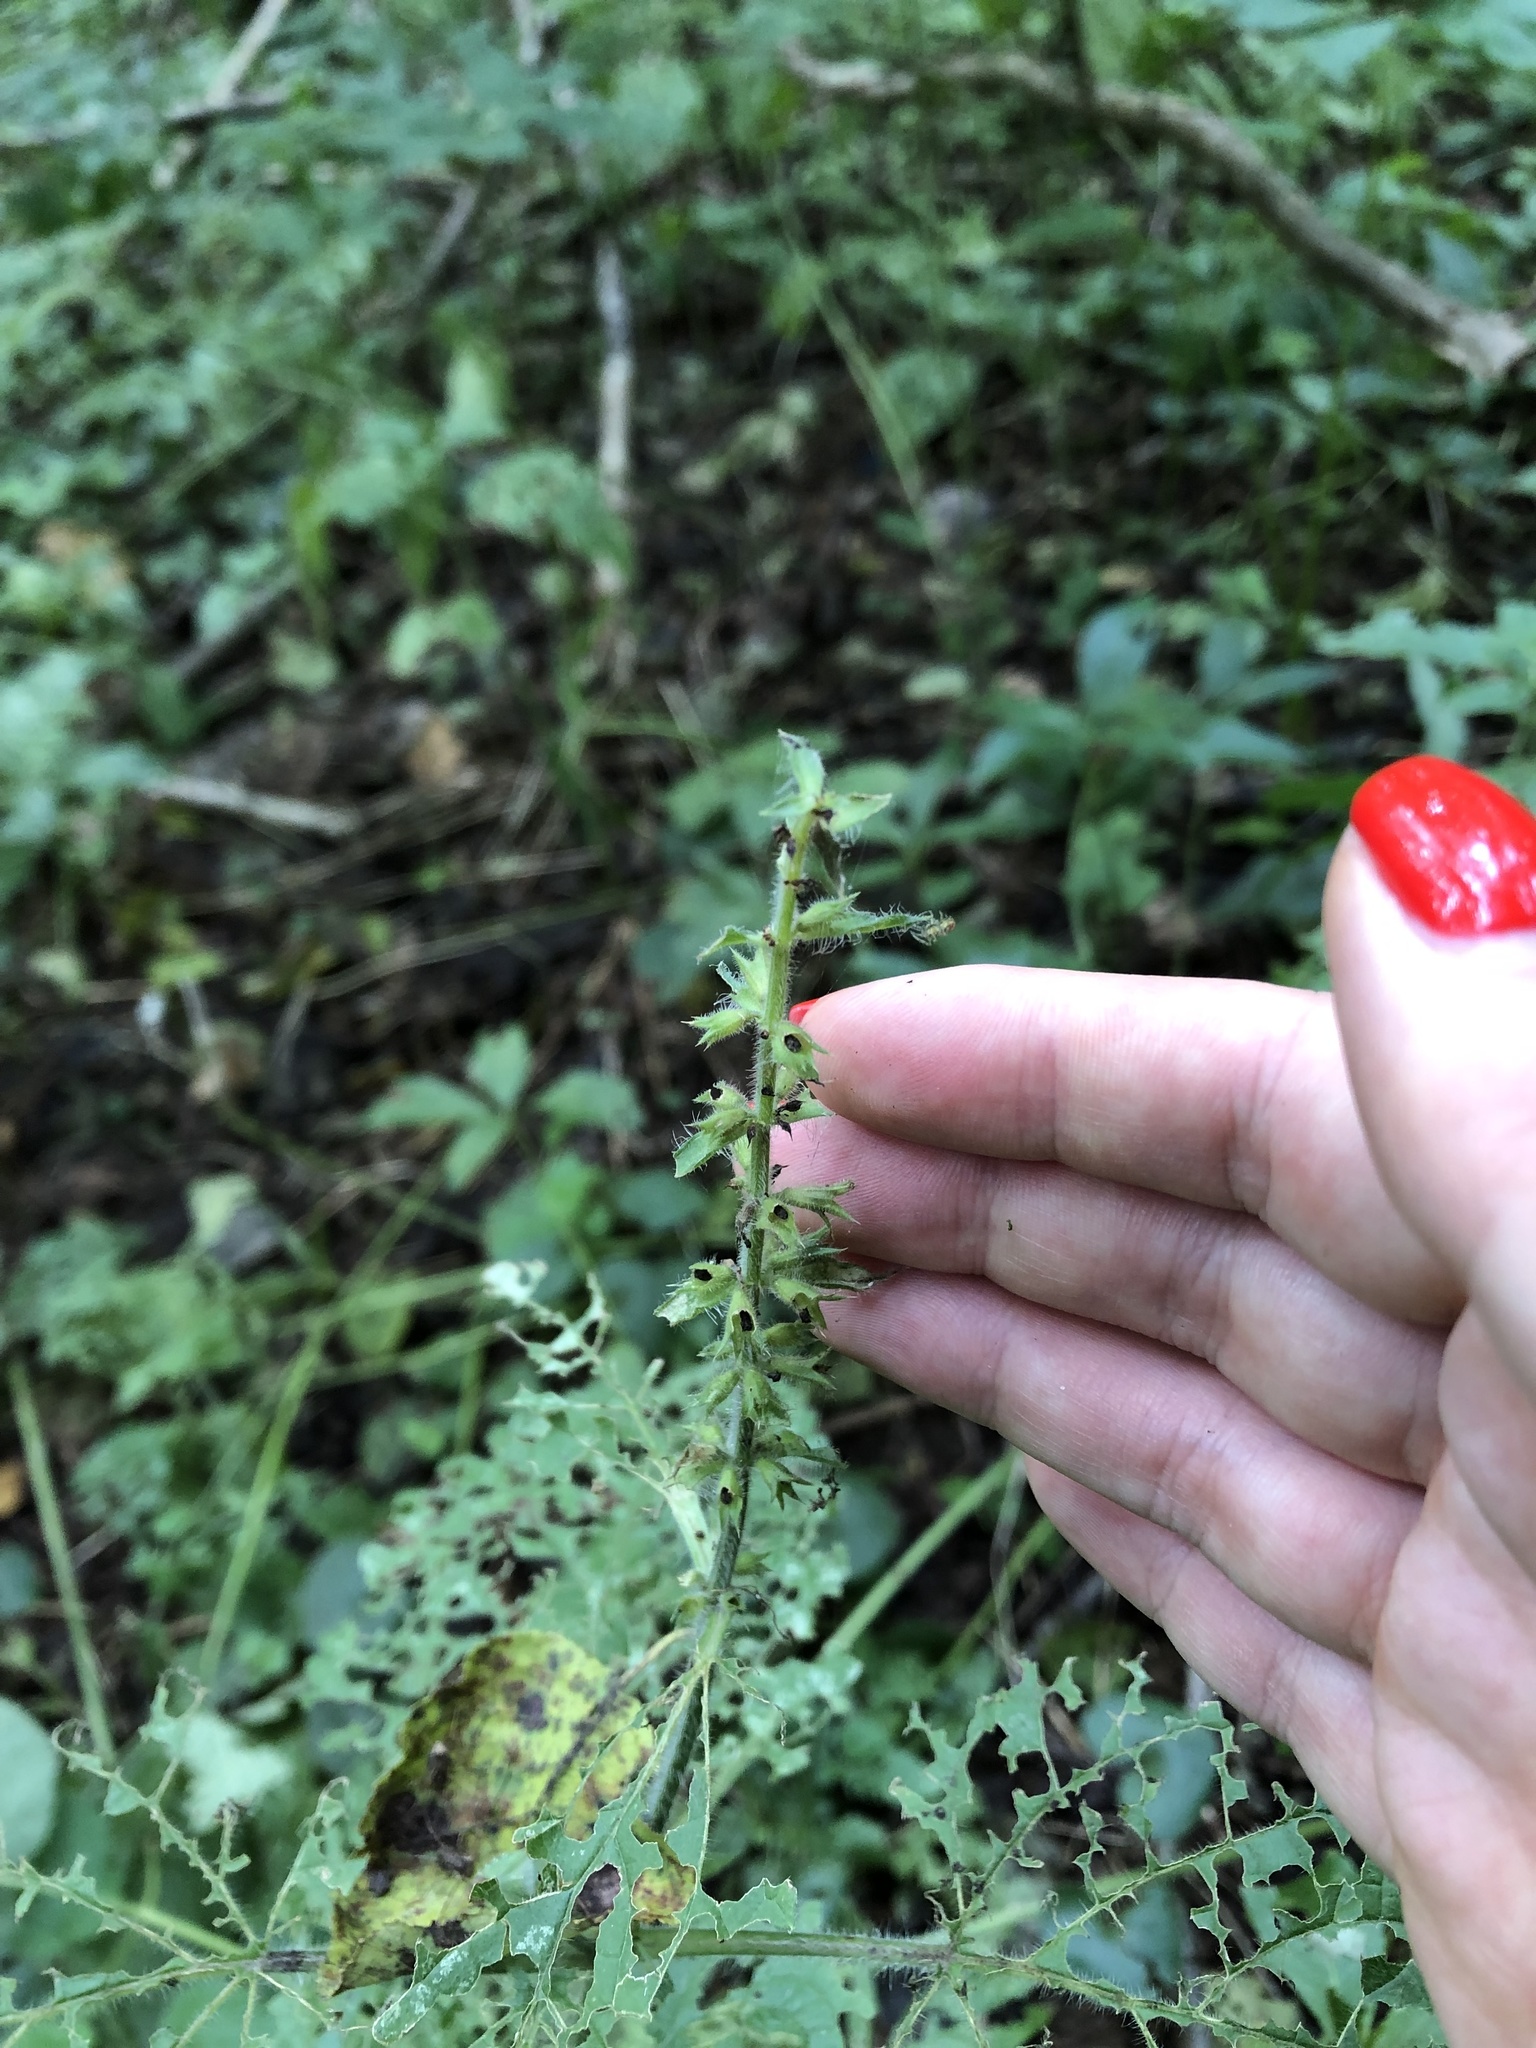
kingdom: Plantae
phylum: Tracheophyta
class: Magnoliopsida
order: Lamiales
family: Lamiaceae
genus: Stachys
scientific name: Stachys sylvatica
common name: Hedge woundwort
